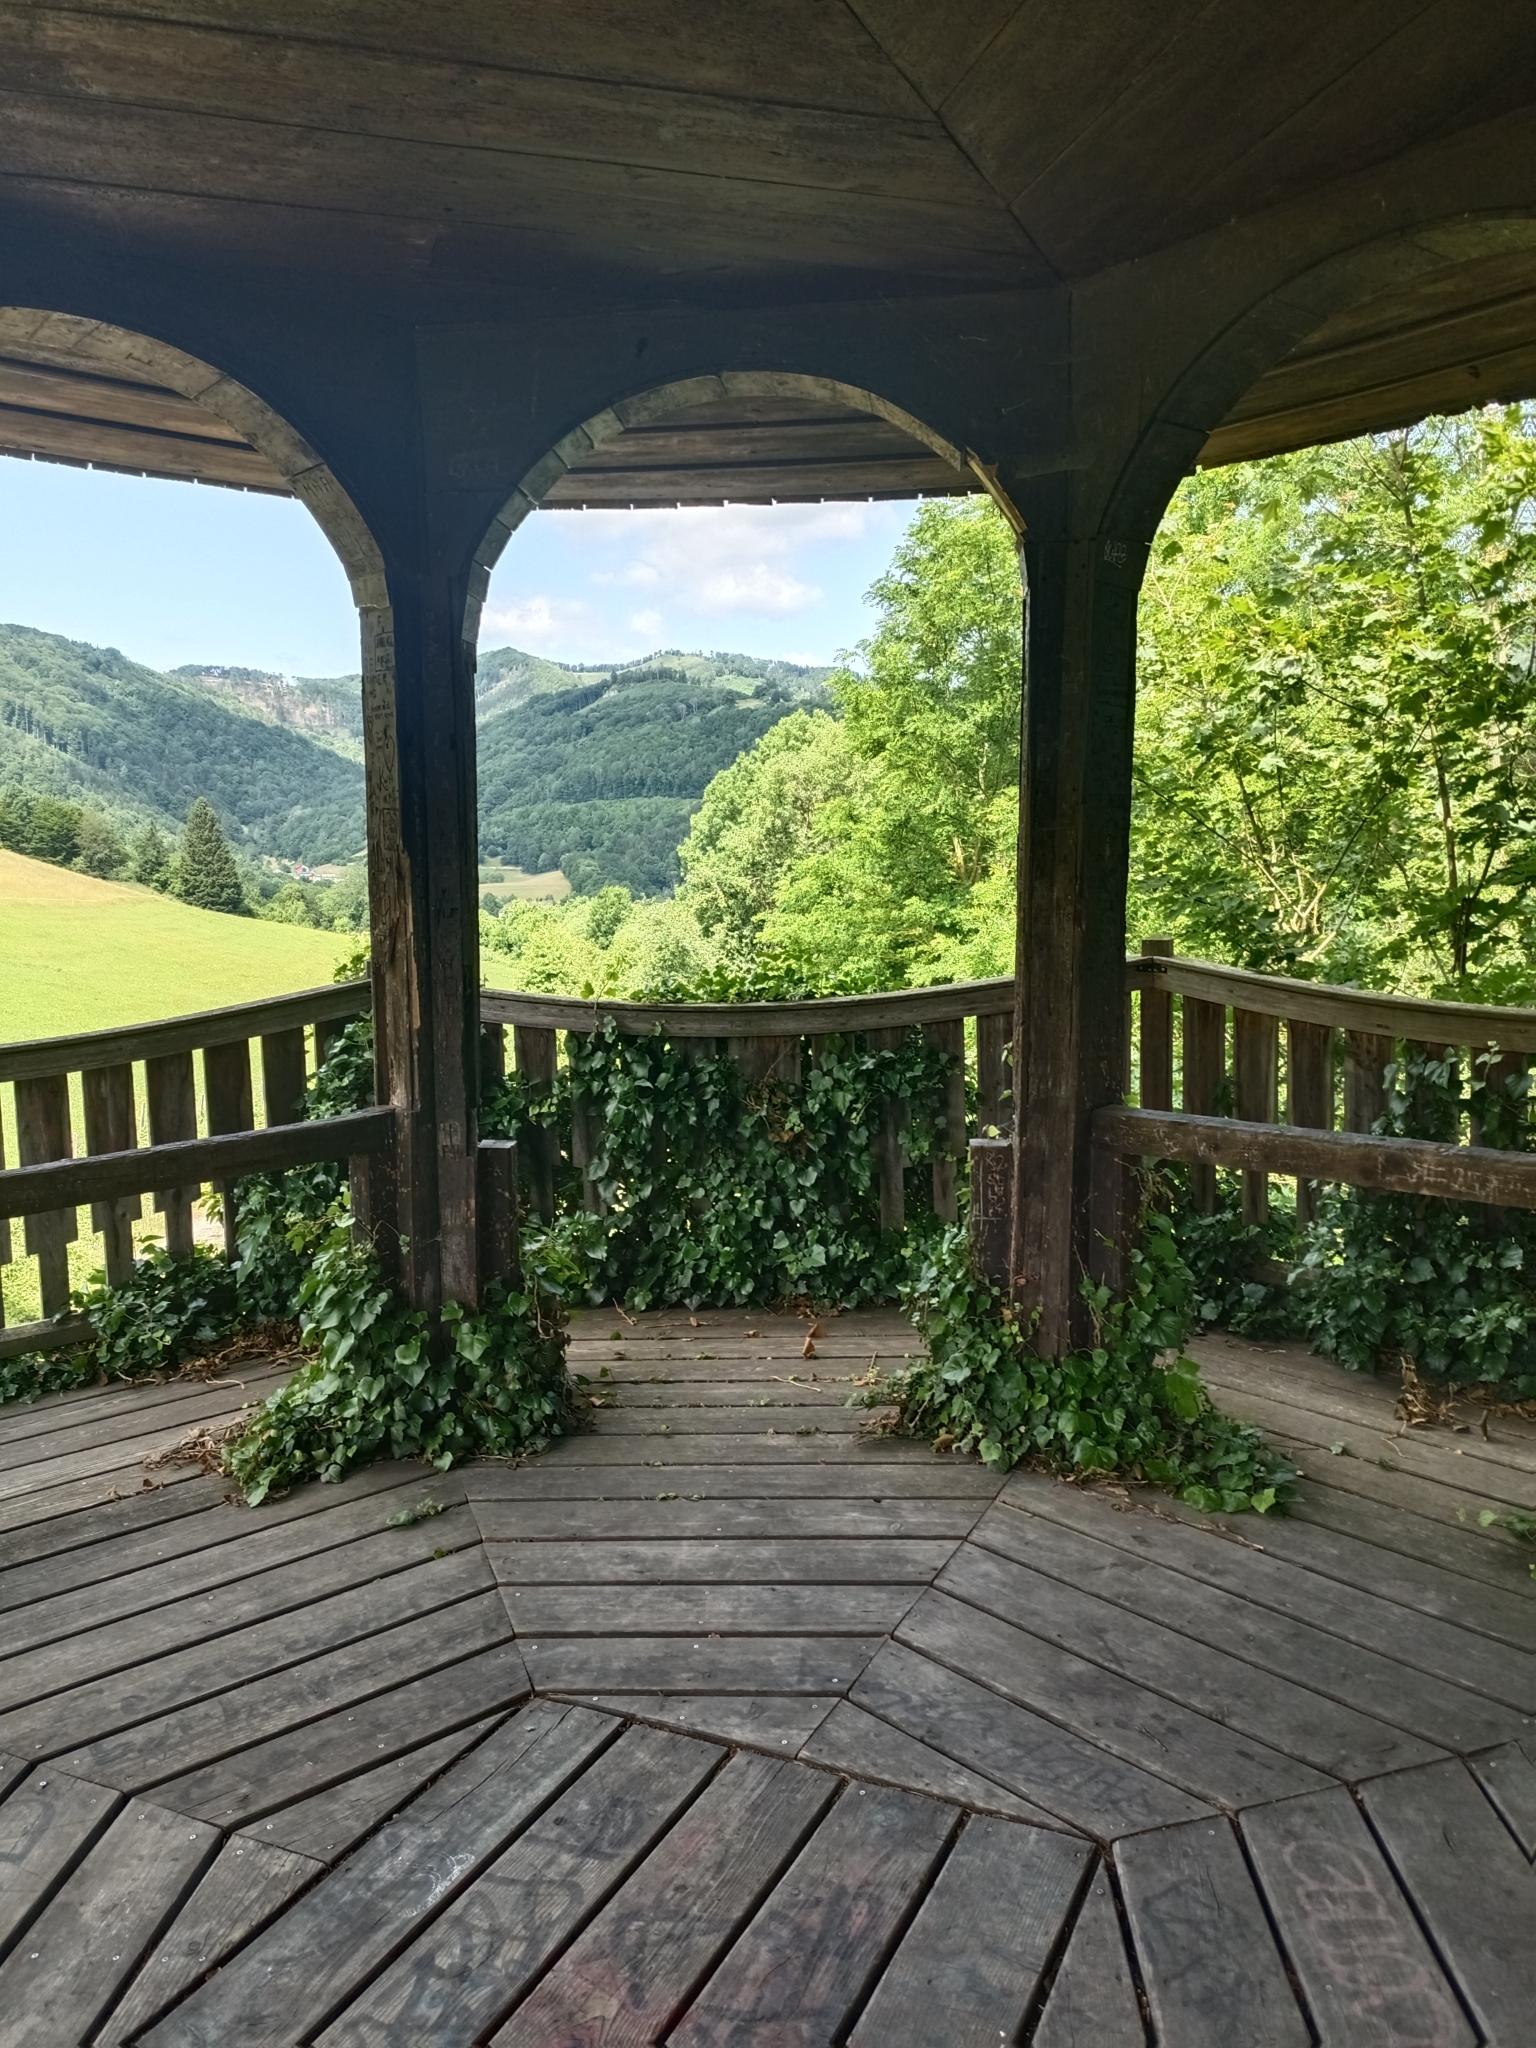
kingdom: Plantae
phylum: Tracheophyta
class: Magnoliopsida
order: Apiales
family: Araliaceae
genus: Hedera
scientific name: Hedera helix
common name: Ivy
